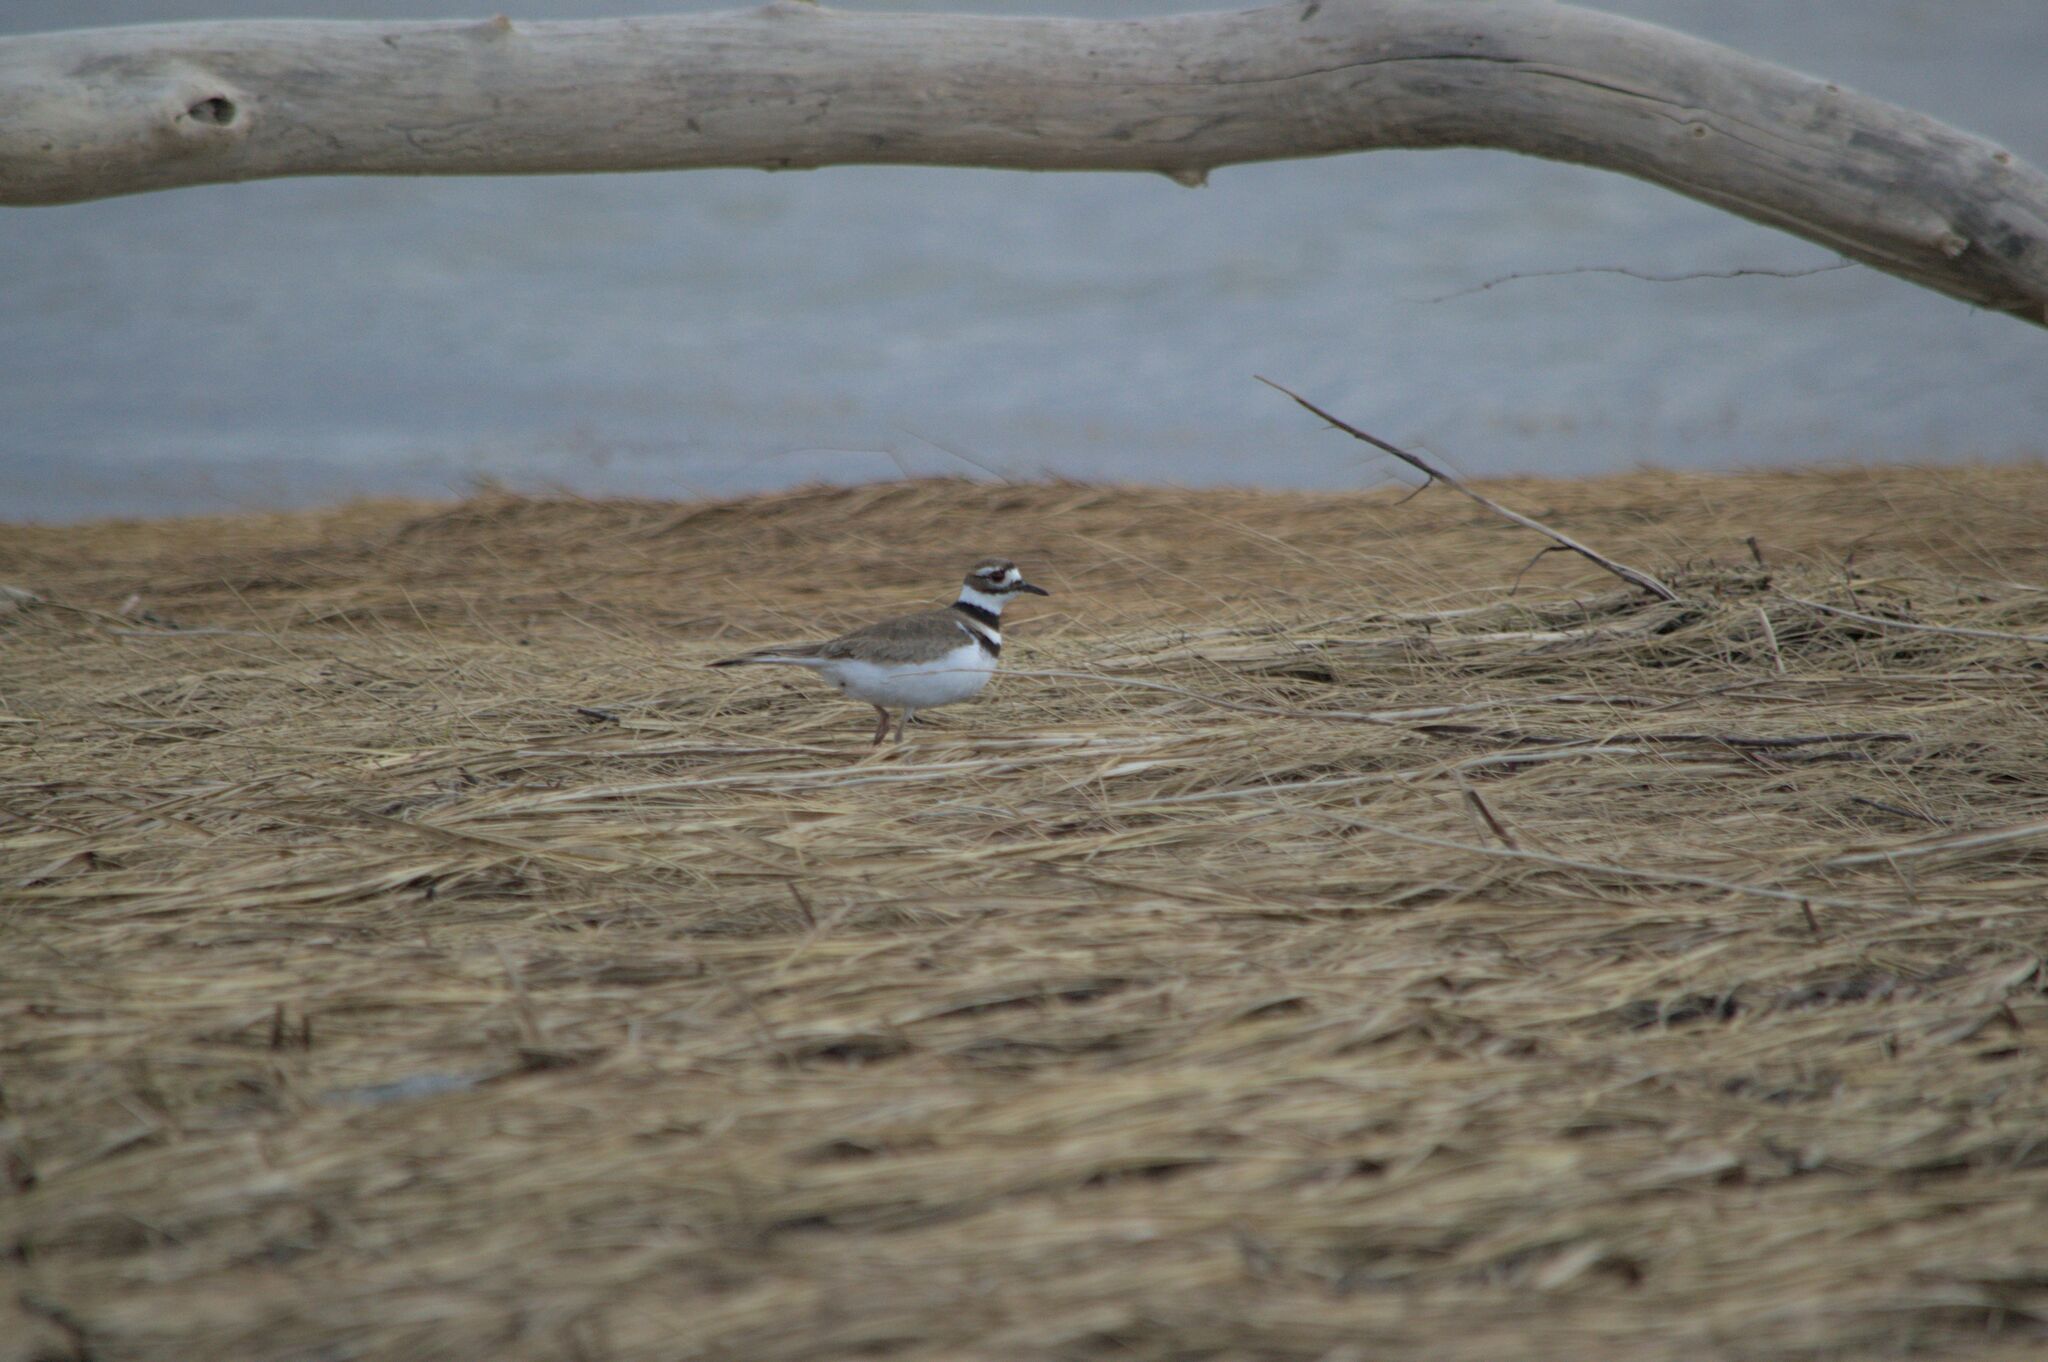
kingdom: Animalia
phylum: Chordata
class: Aves
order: Charadriiformes
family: Charadriidae
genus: Charadrius
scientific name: Charadrius vociferus
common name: Killdeer
